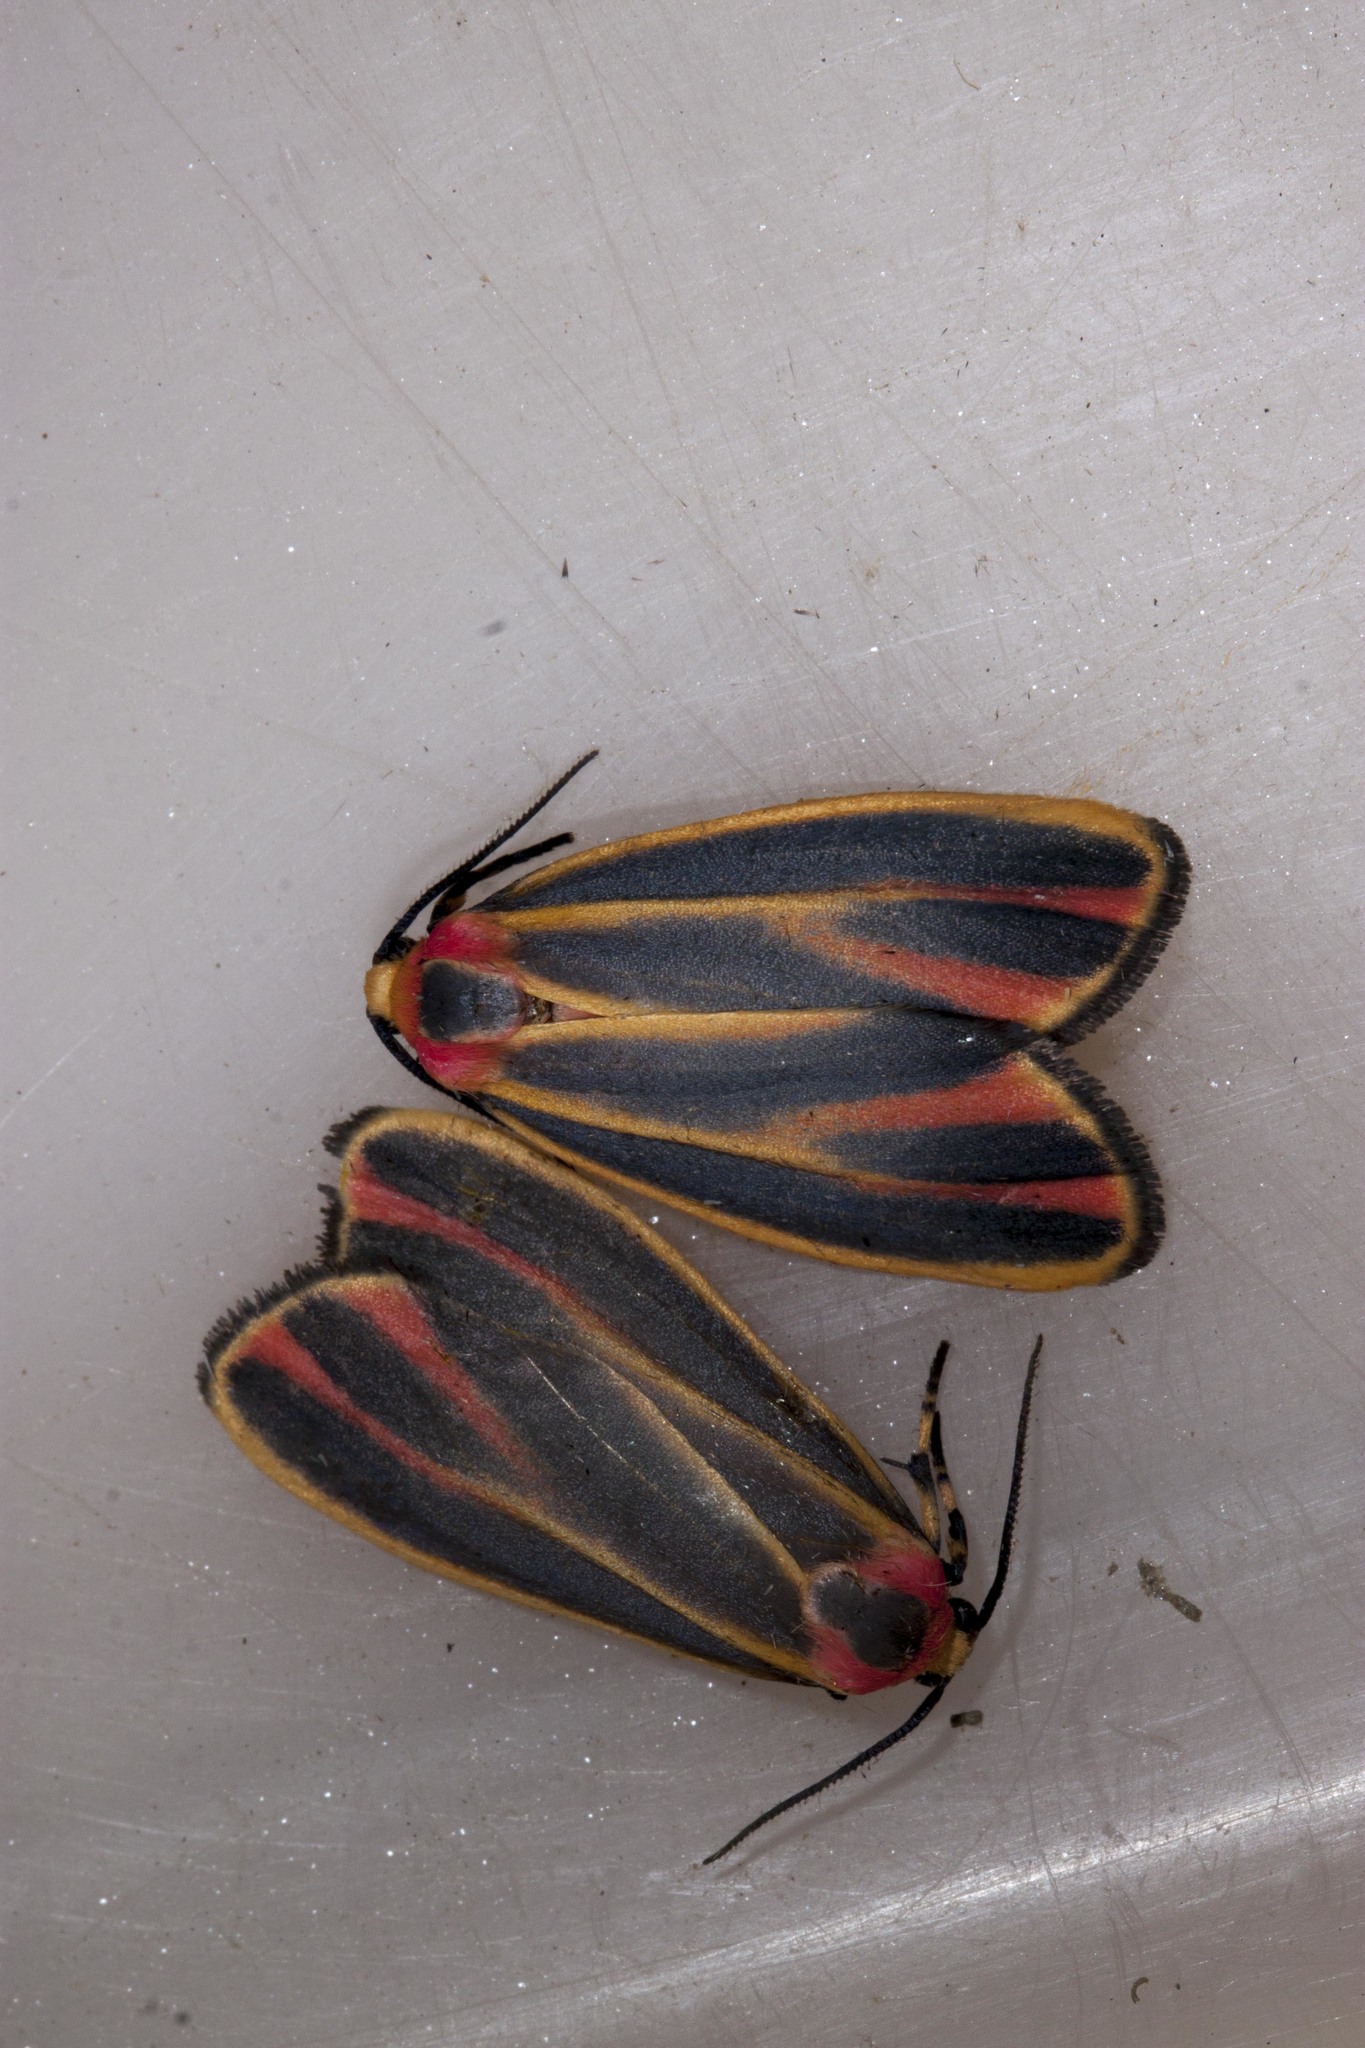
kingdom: Animalia
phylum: Arthropoda
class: Insecta
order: Lepidoptera
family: Erebidae
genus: Hypoprepia
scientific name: Hypoprepia fucosa
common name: Painted lichen moth
